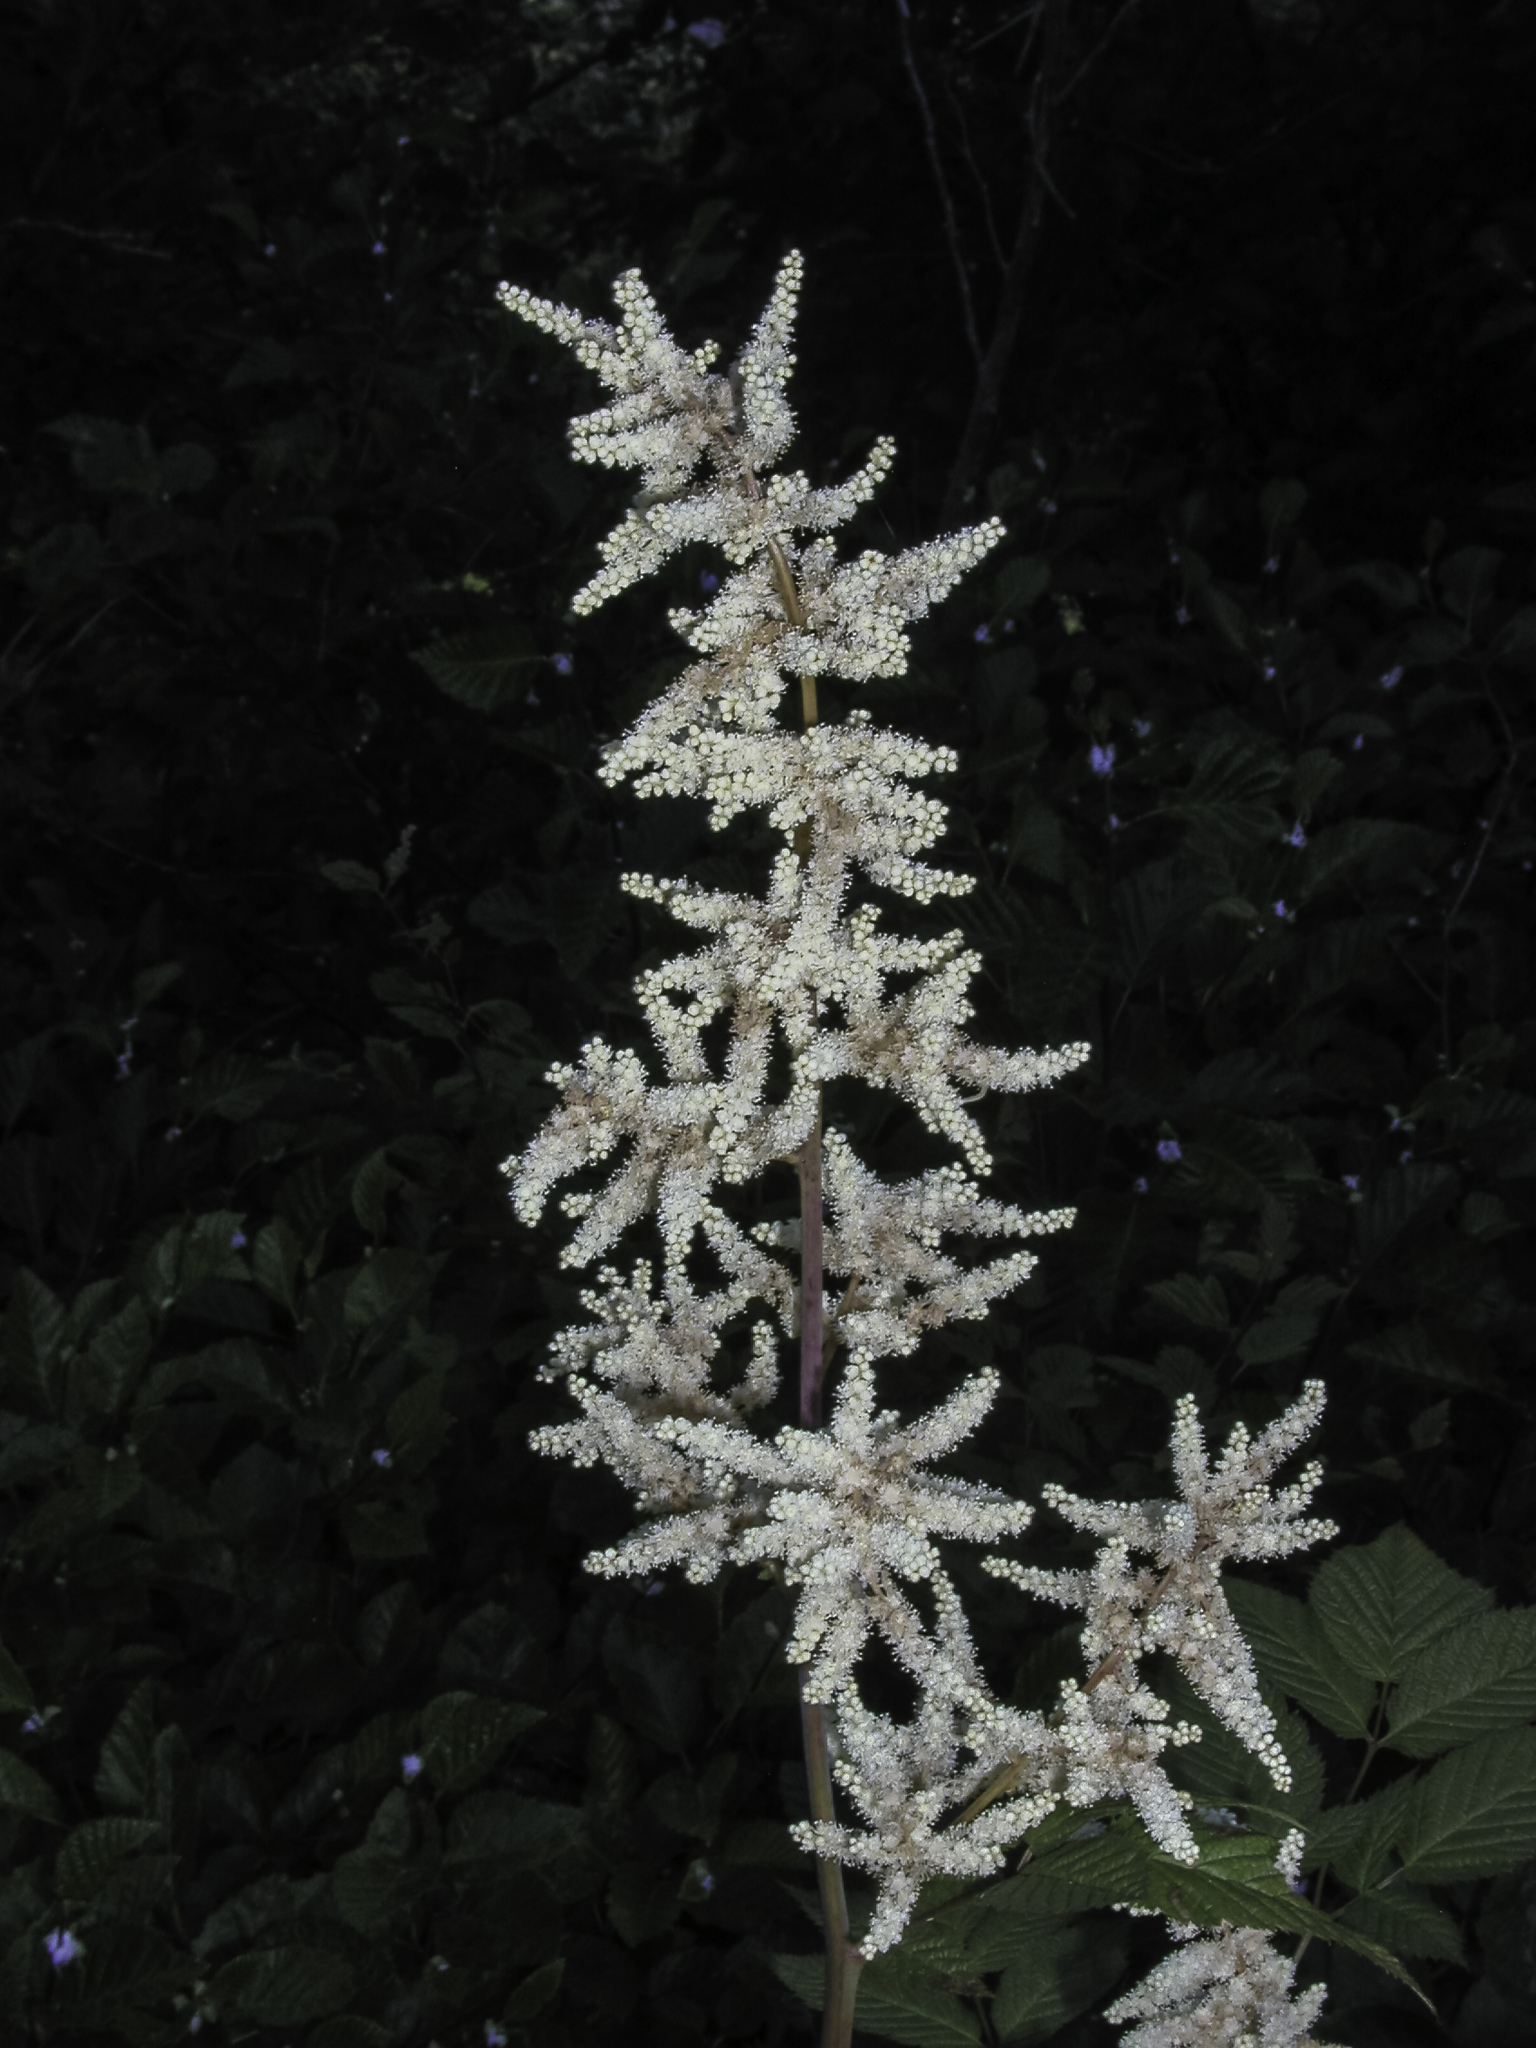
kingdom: Plantae
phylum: Tracheophyta
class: Magnoliopsida
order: Rosales
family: Rosaceae
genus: Aruncus
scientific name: Aruncus dioicus
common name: Buck's-beard
